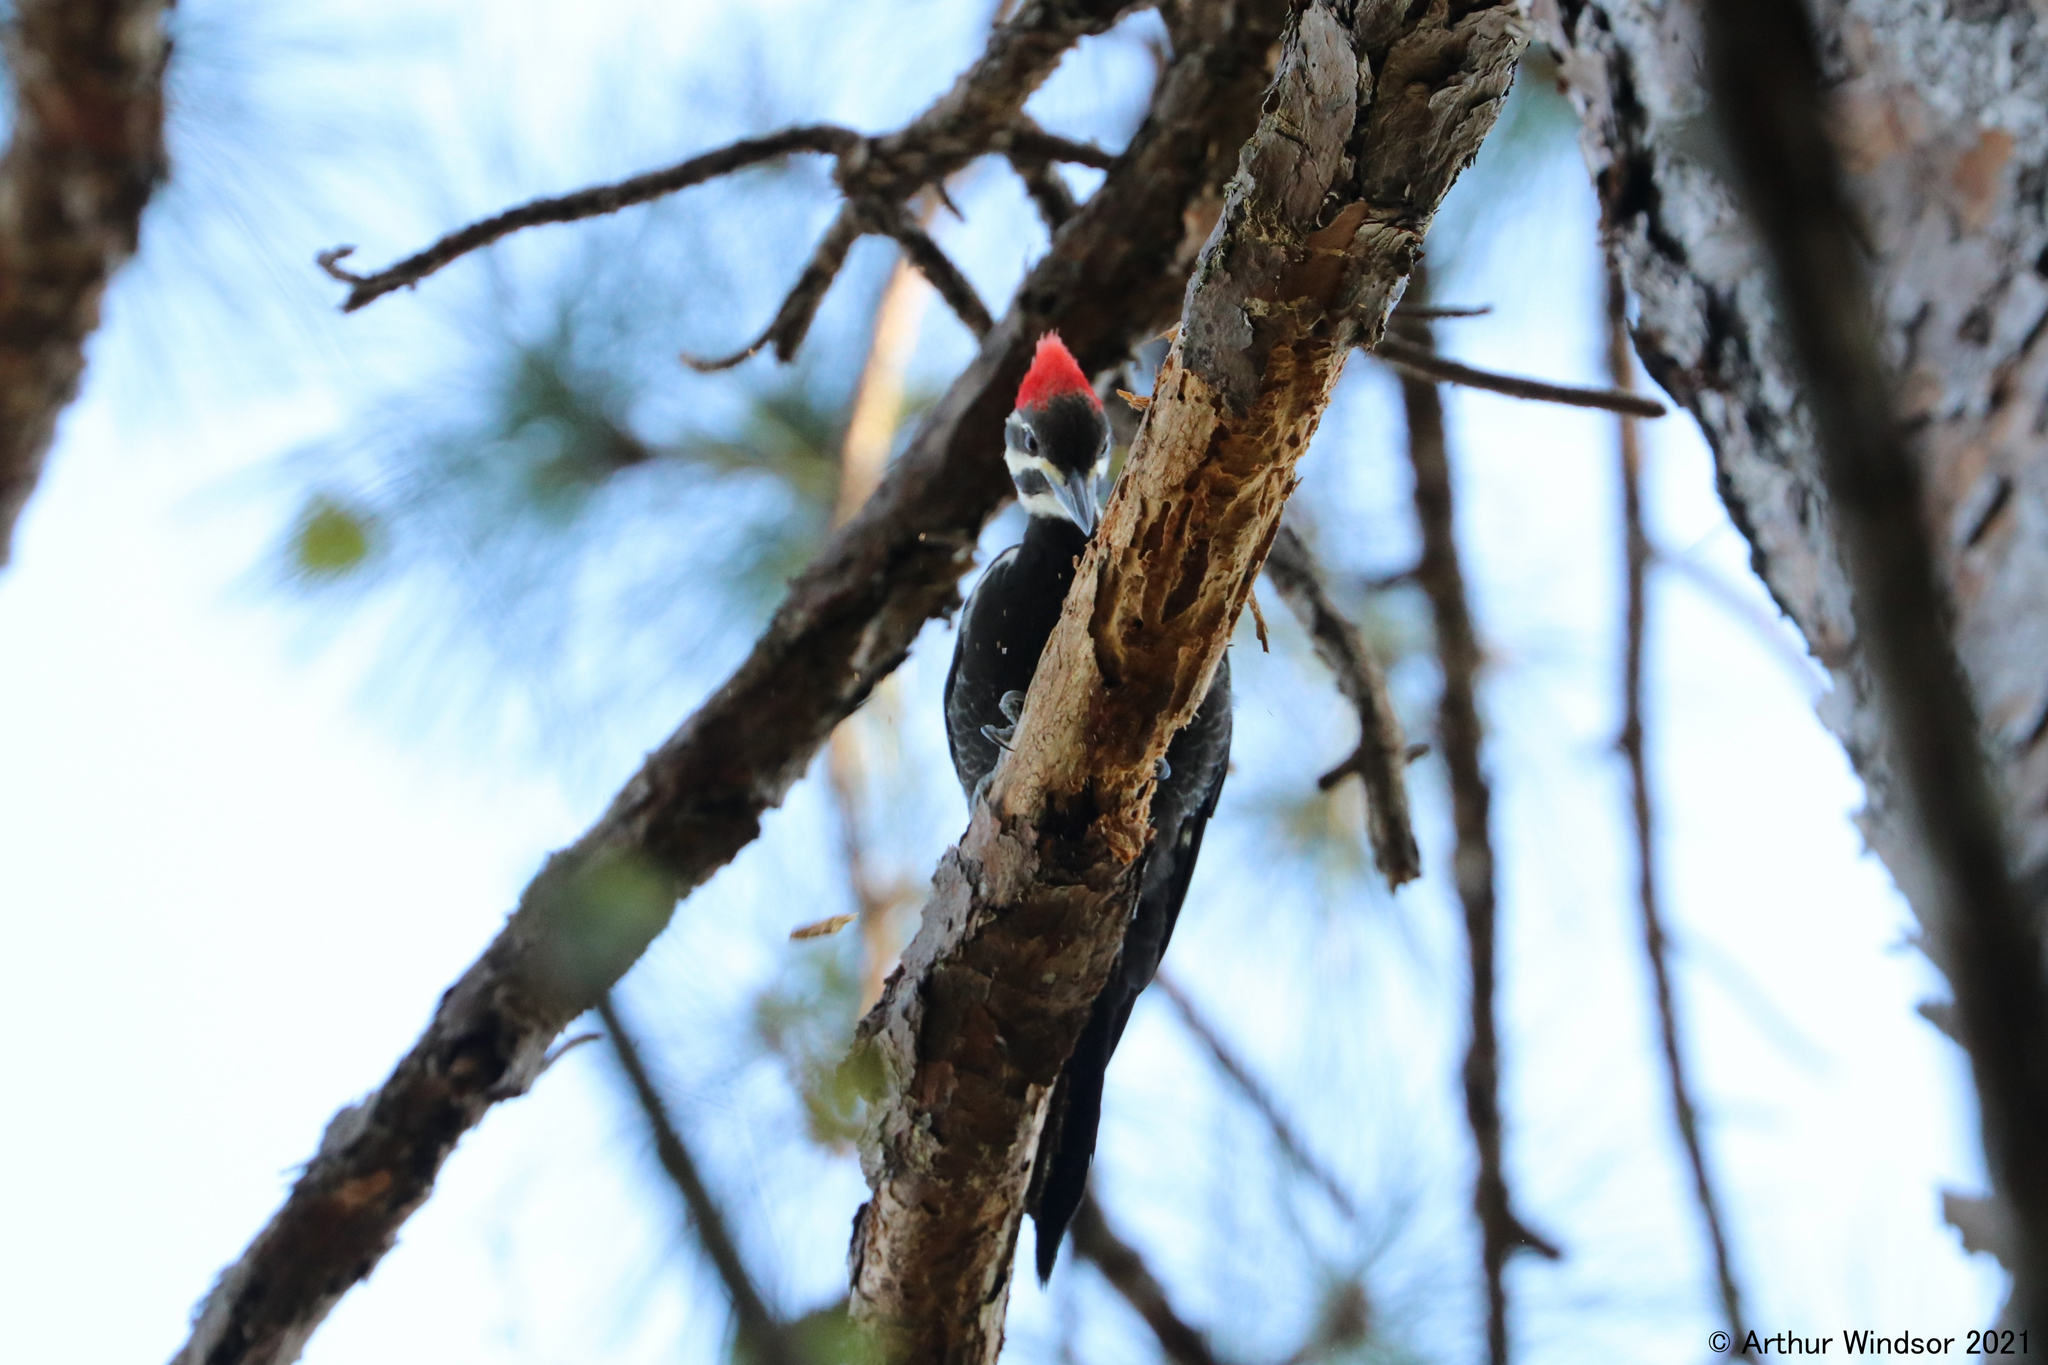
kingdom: Animalia
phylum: Chordata
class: Aves
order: Piciformes
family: Picidae
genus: Dryocopus
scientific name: Dryocopus pileatus
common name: Pileated woodpecker
